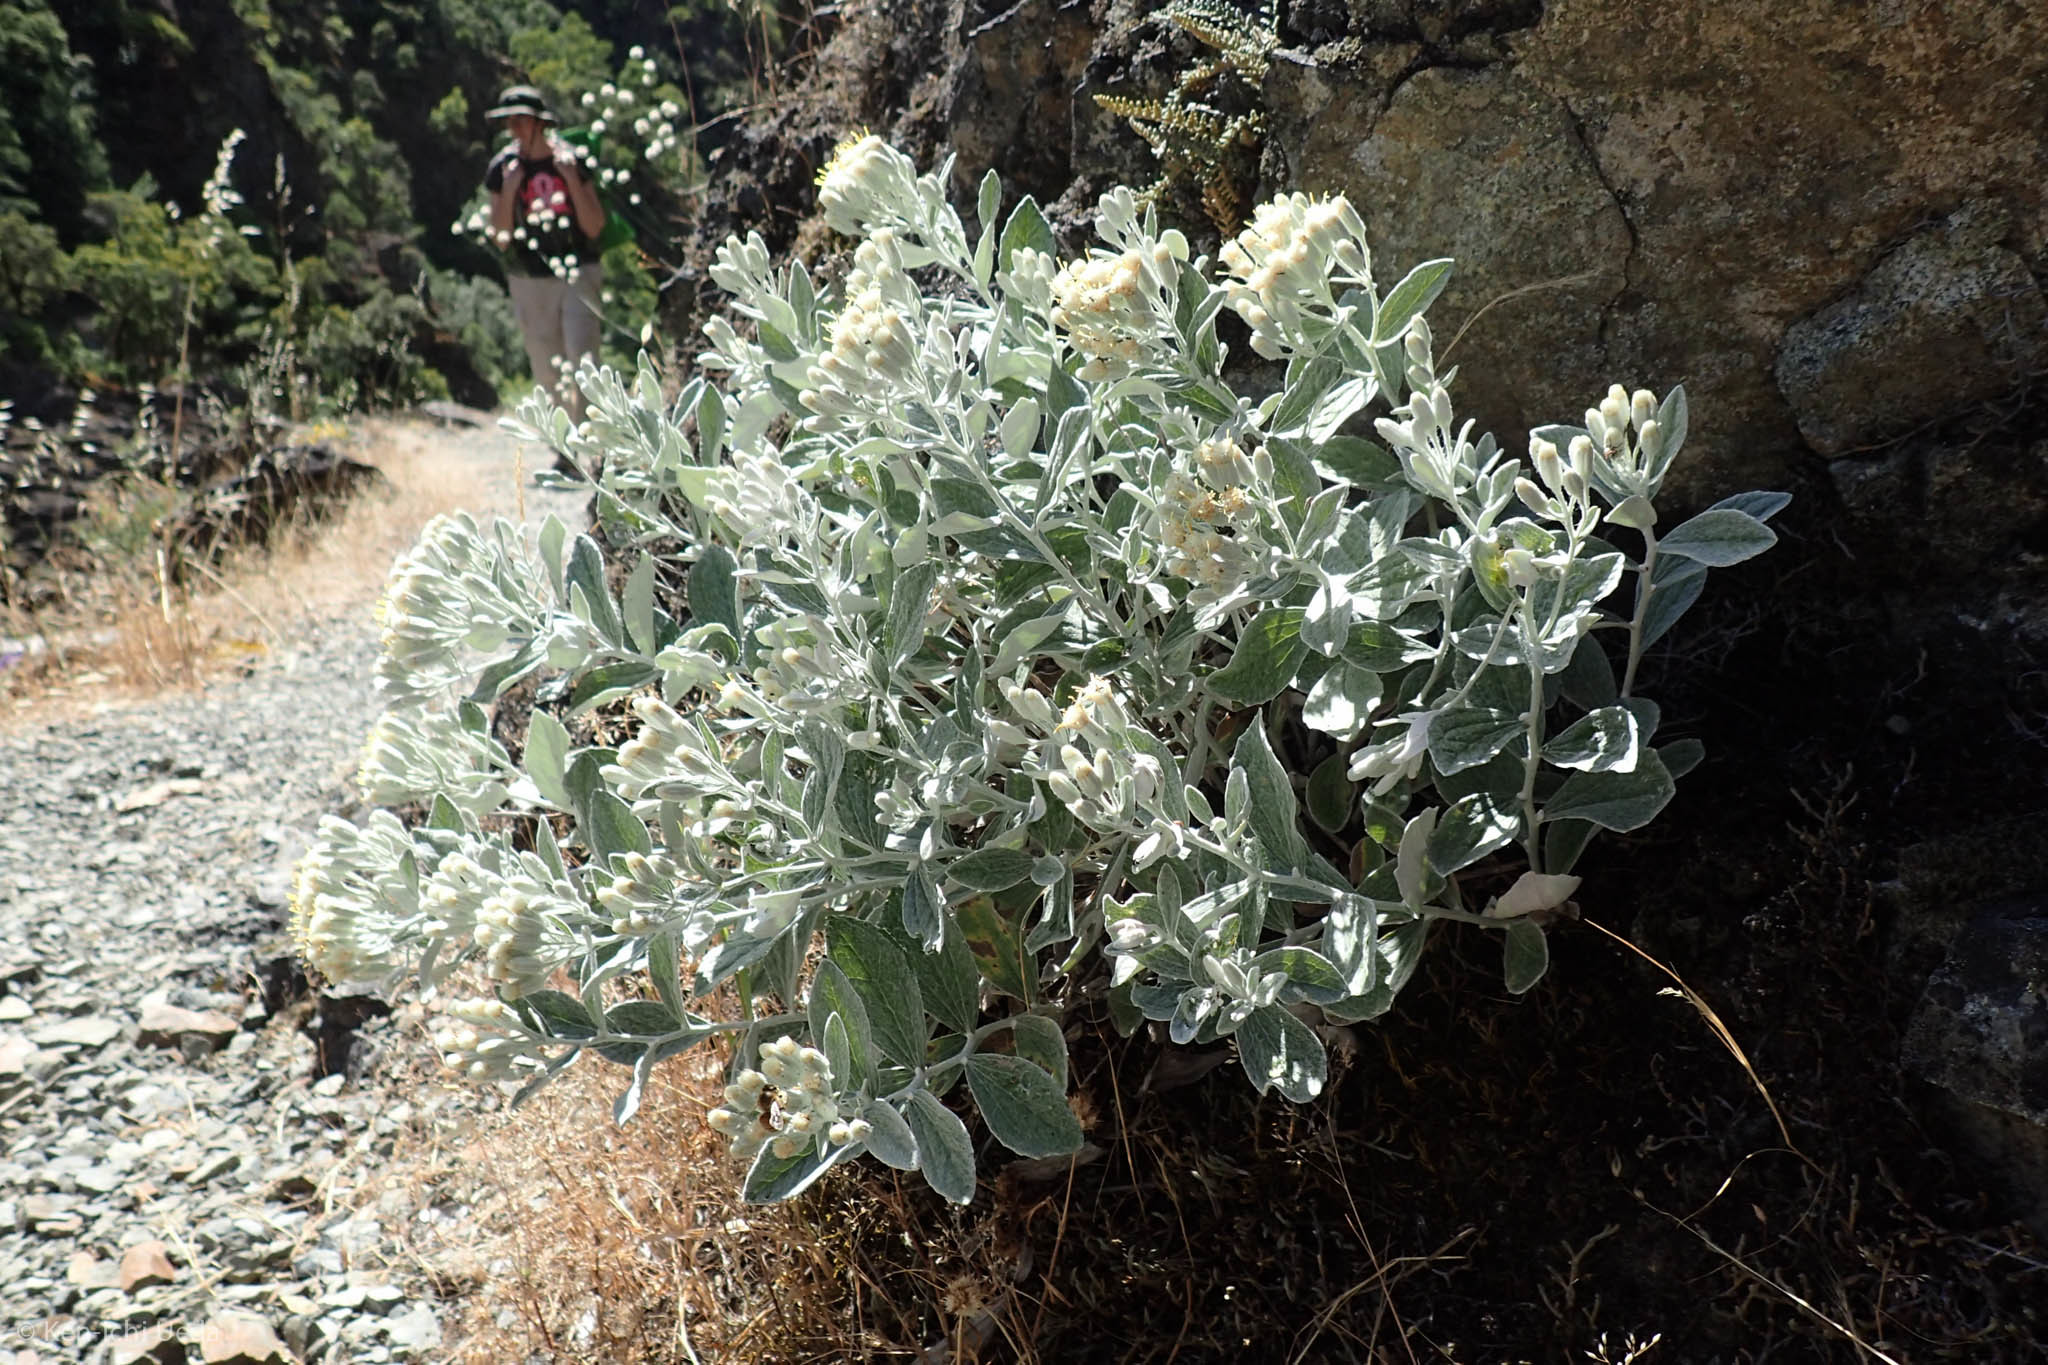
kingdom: Plantae
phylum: Tracheophyta
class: Magnoliopsida
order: Asterales
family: Asteraceae
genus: Luina
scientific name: Luina hypoleuca
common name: Little-leaved luina
